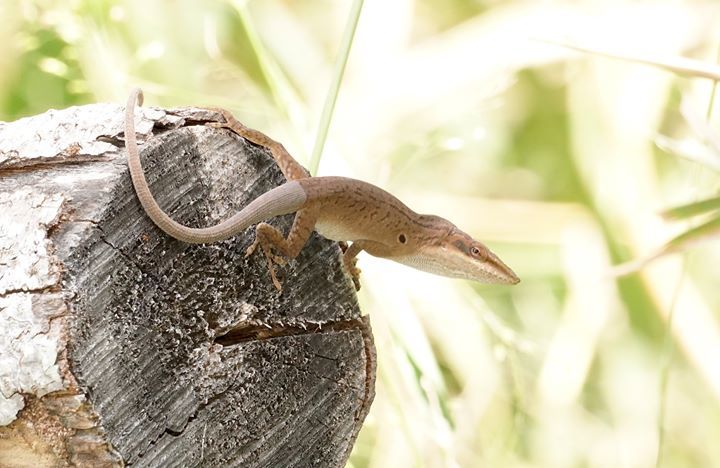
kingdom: Animalia
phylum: Chordata
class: Squamata
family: Dactyloidae
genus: Anolis
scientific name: Anolis carolinensis
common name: Green anole
